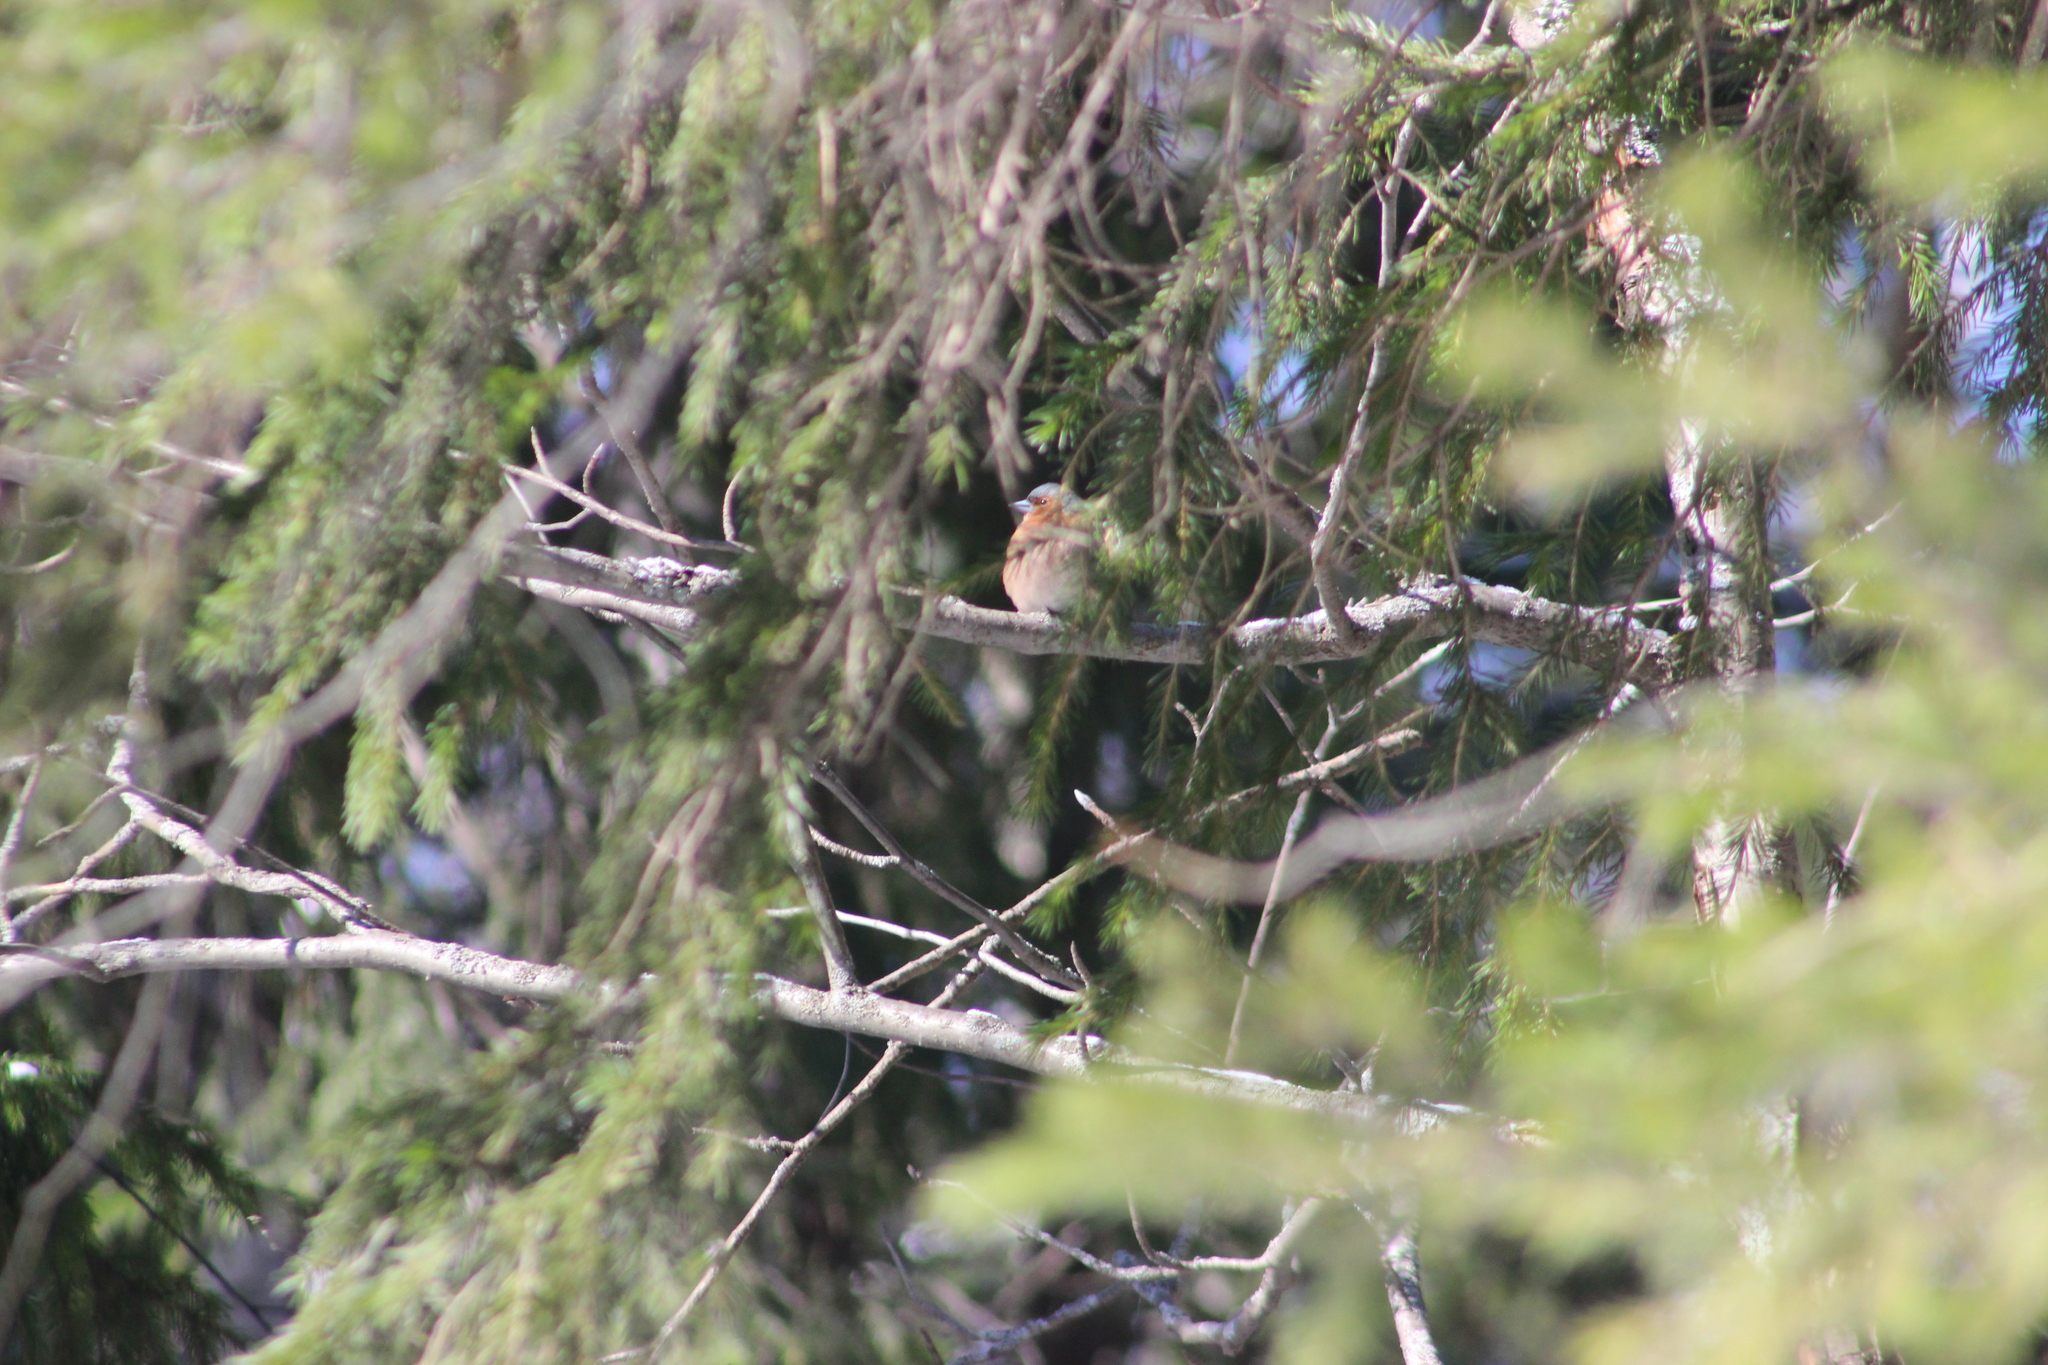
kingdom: Animalia
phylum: Chordata
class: Aves
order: Passeriformes
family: Fringillidae
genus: Fringilla
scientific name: Fringilla coelebs
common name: Common chaffinch
